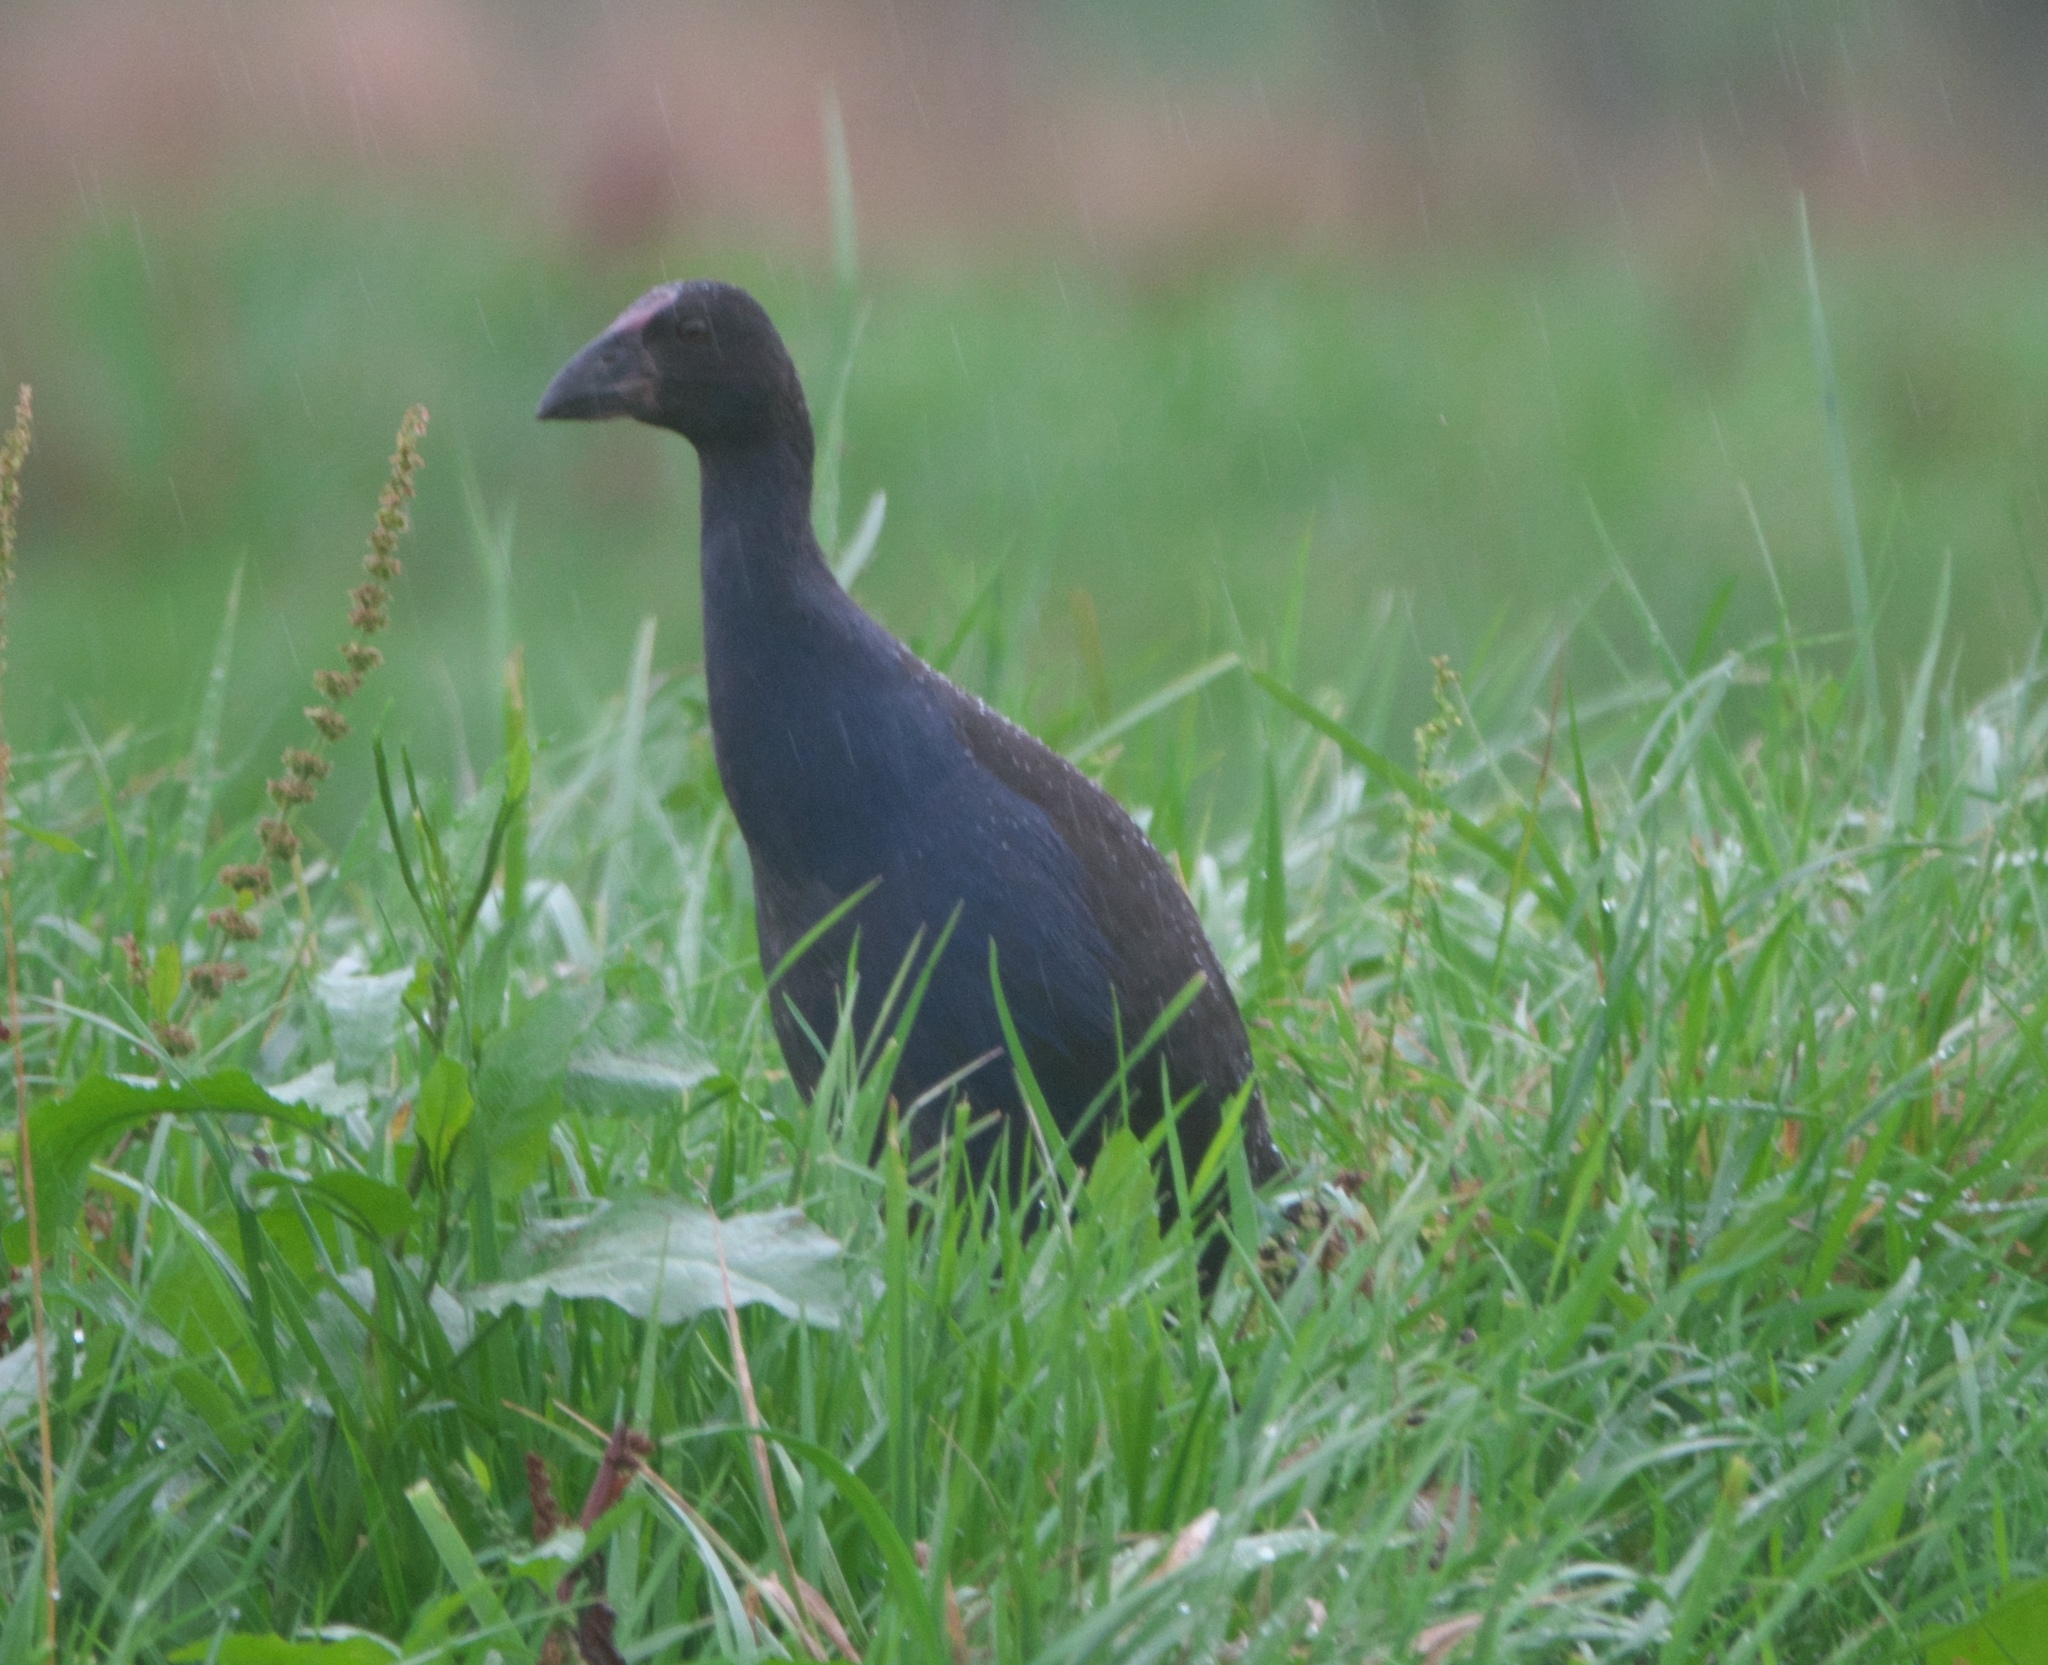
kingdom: Animalia
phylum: Chordata
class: Aves
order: Gruiformes
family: Rallidae
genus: Porphyrio
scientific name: Porphyrio melanotus
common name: Australasian swamphen
